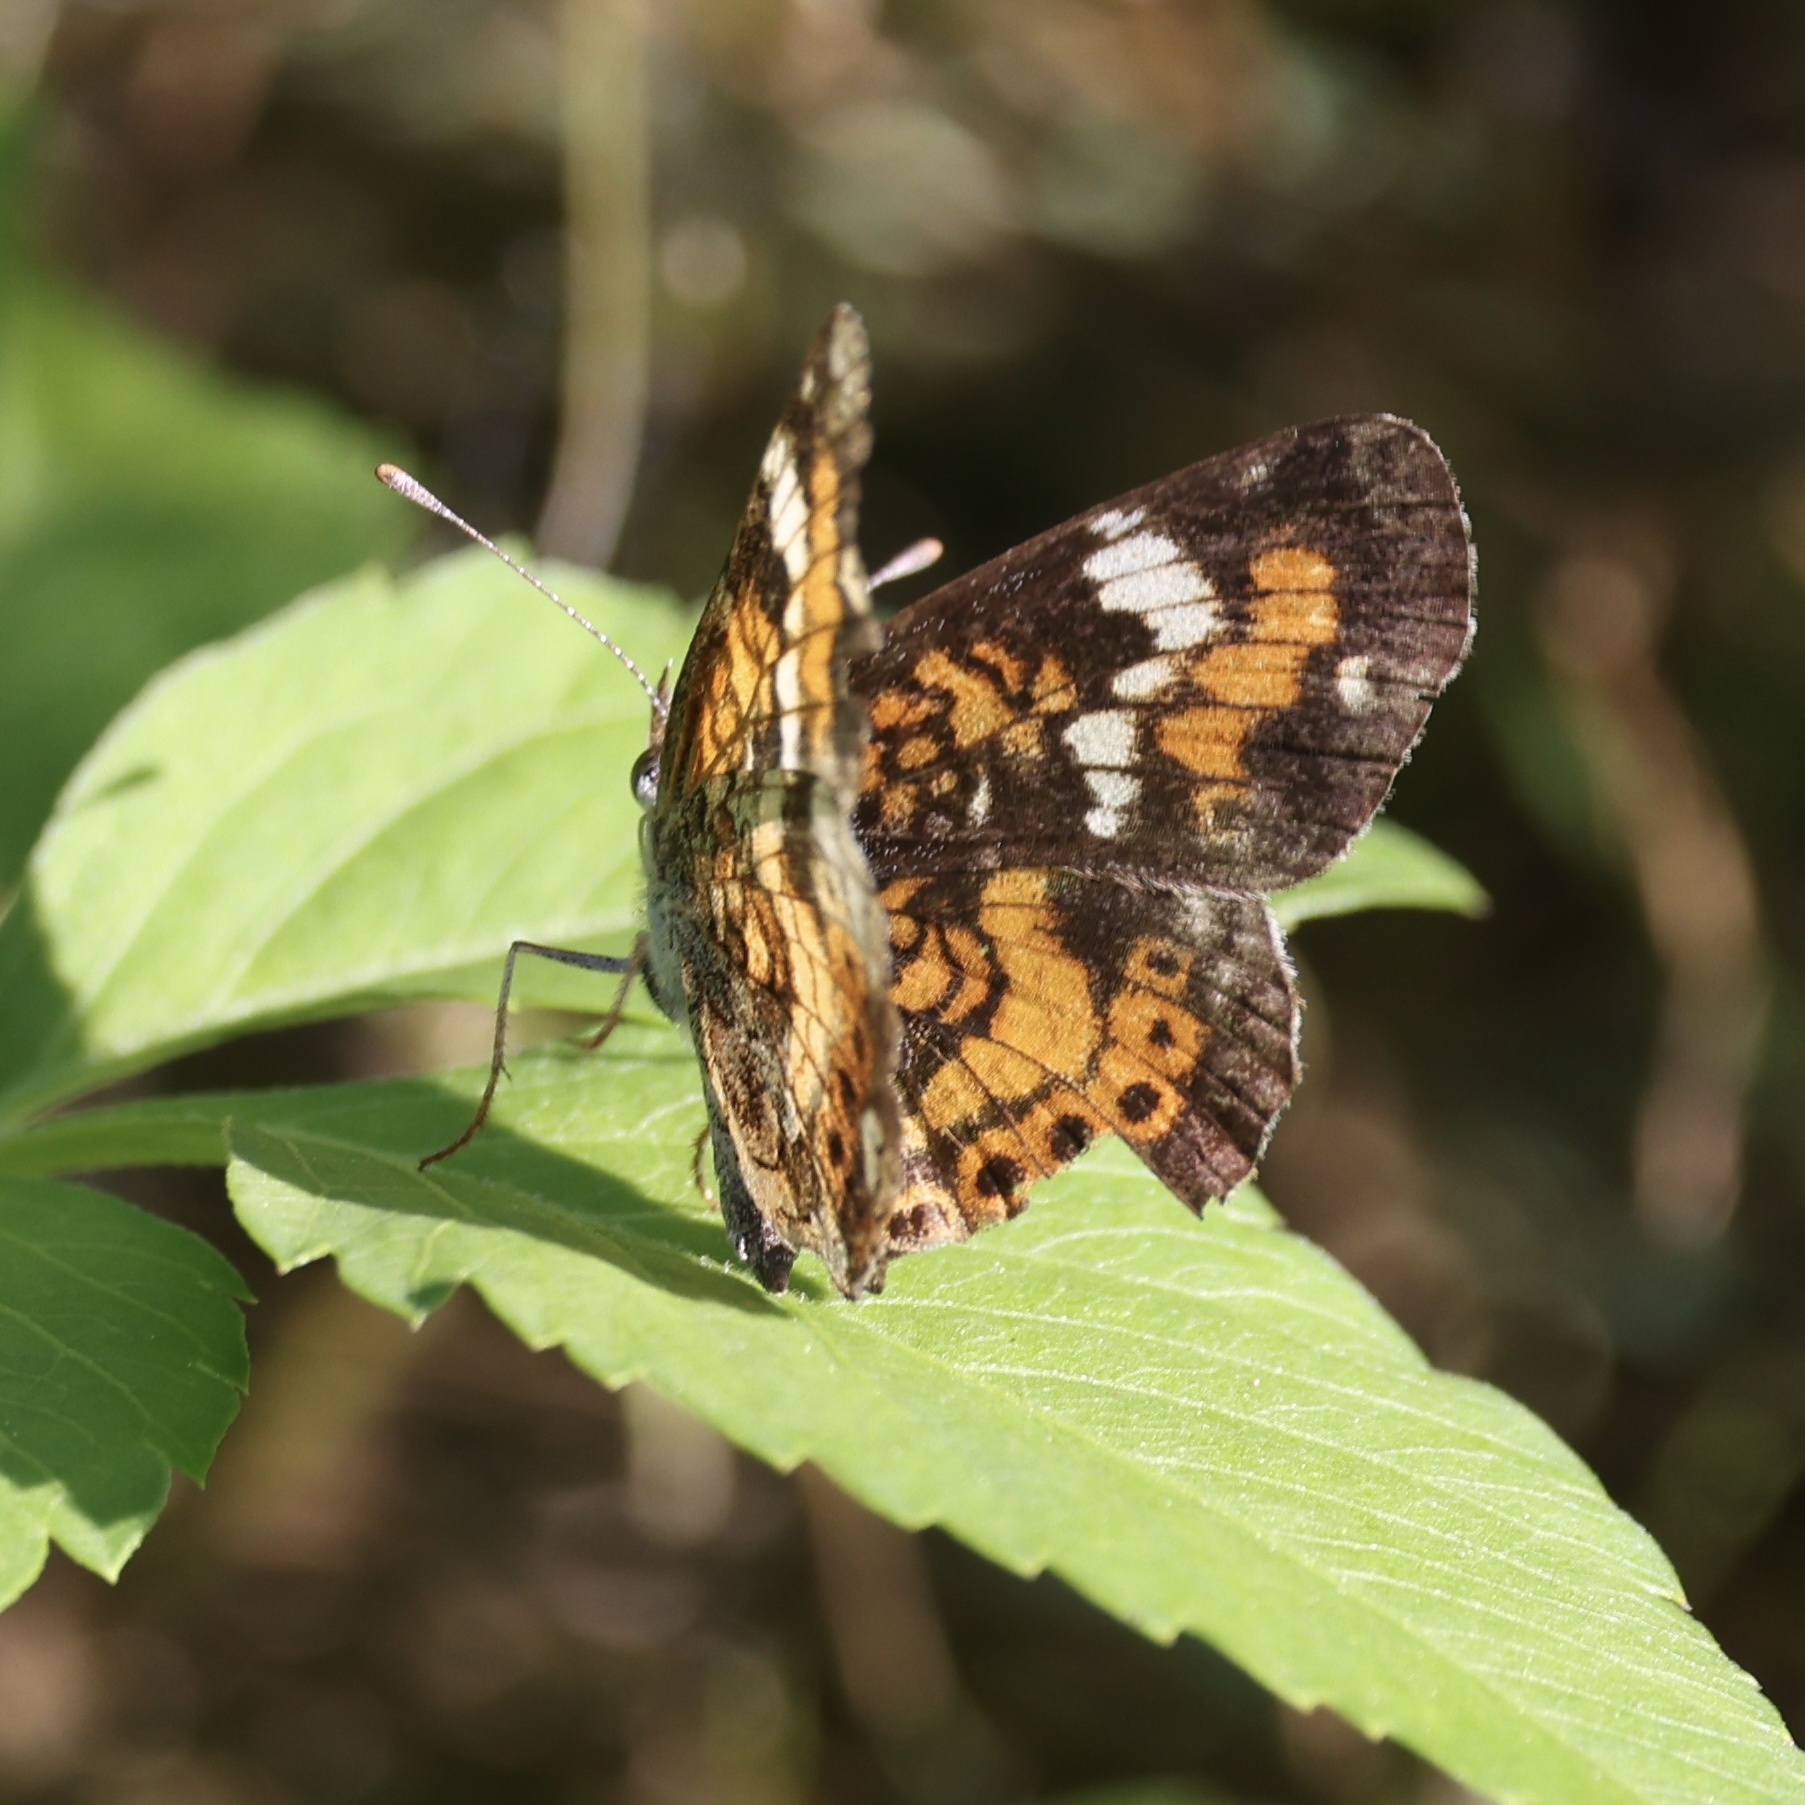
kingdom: Animalia
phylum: Arthropoda
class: Insecta
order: Lepidoptera
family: Nymphalidae
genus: Phyciodes
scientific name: Phyciodes phaon
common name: Phaon crescent
